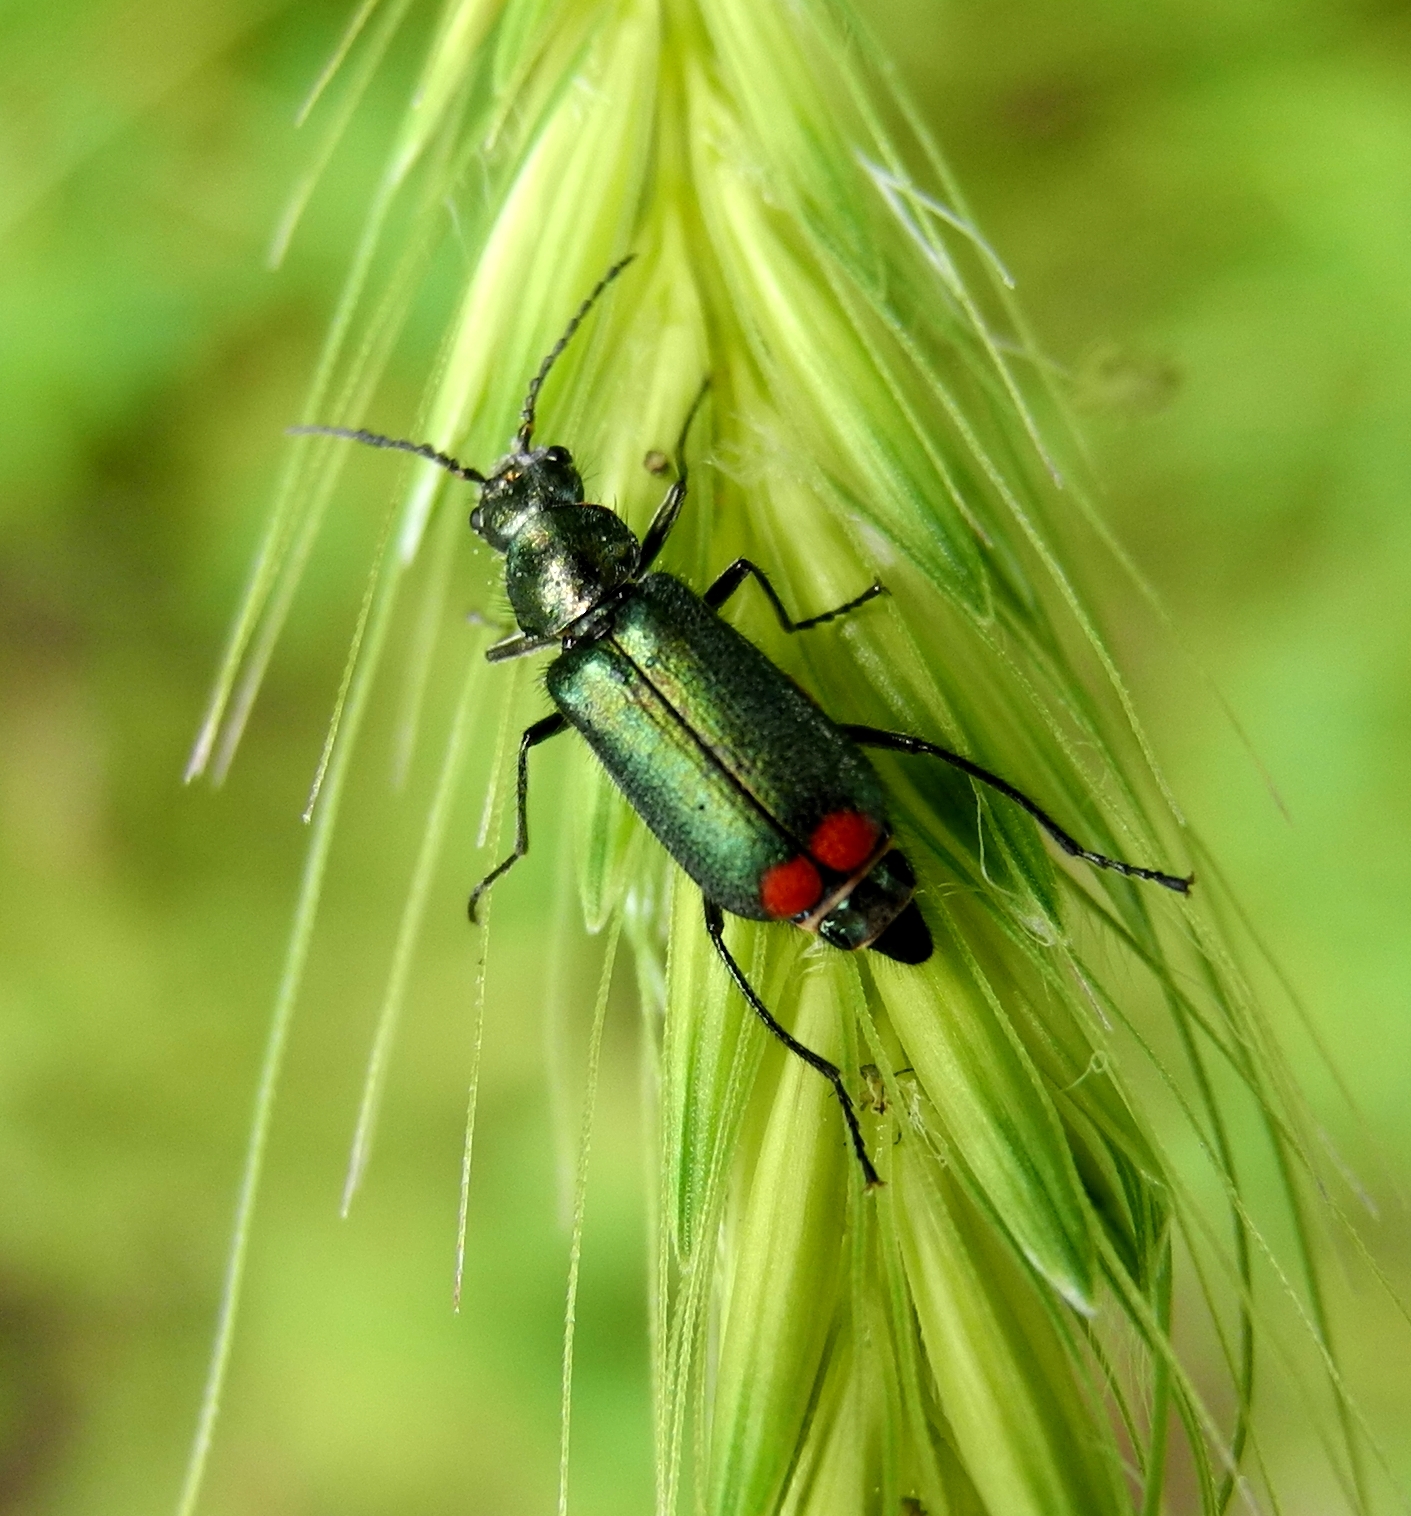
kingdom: Animalia
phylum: Arthropoda
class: Insecta
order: Coleoptera
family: Melyridae
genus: Malachius
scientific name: Malachius bipustulatus
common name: Malachite beetle
